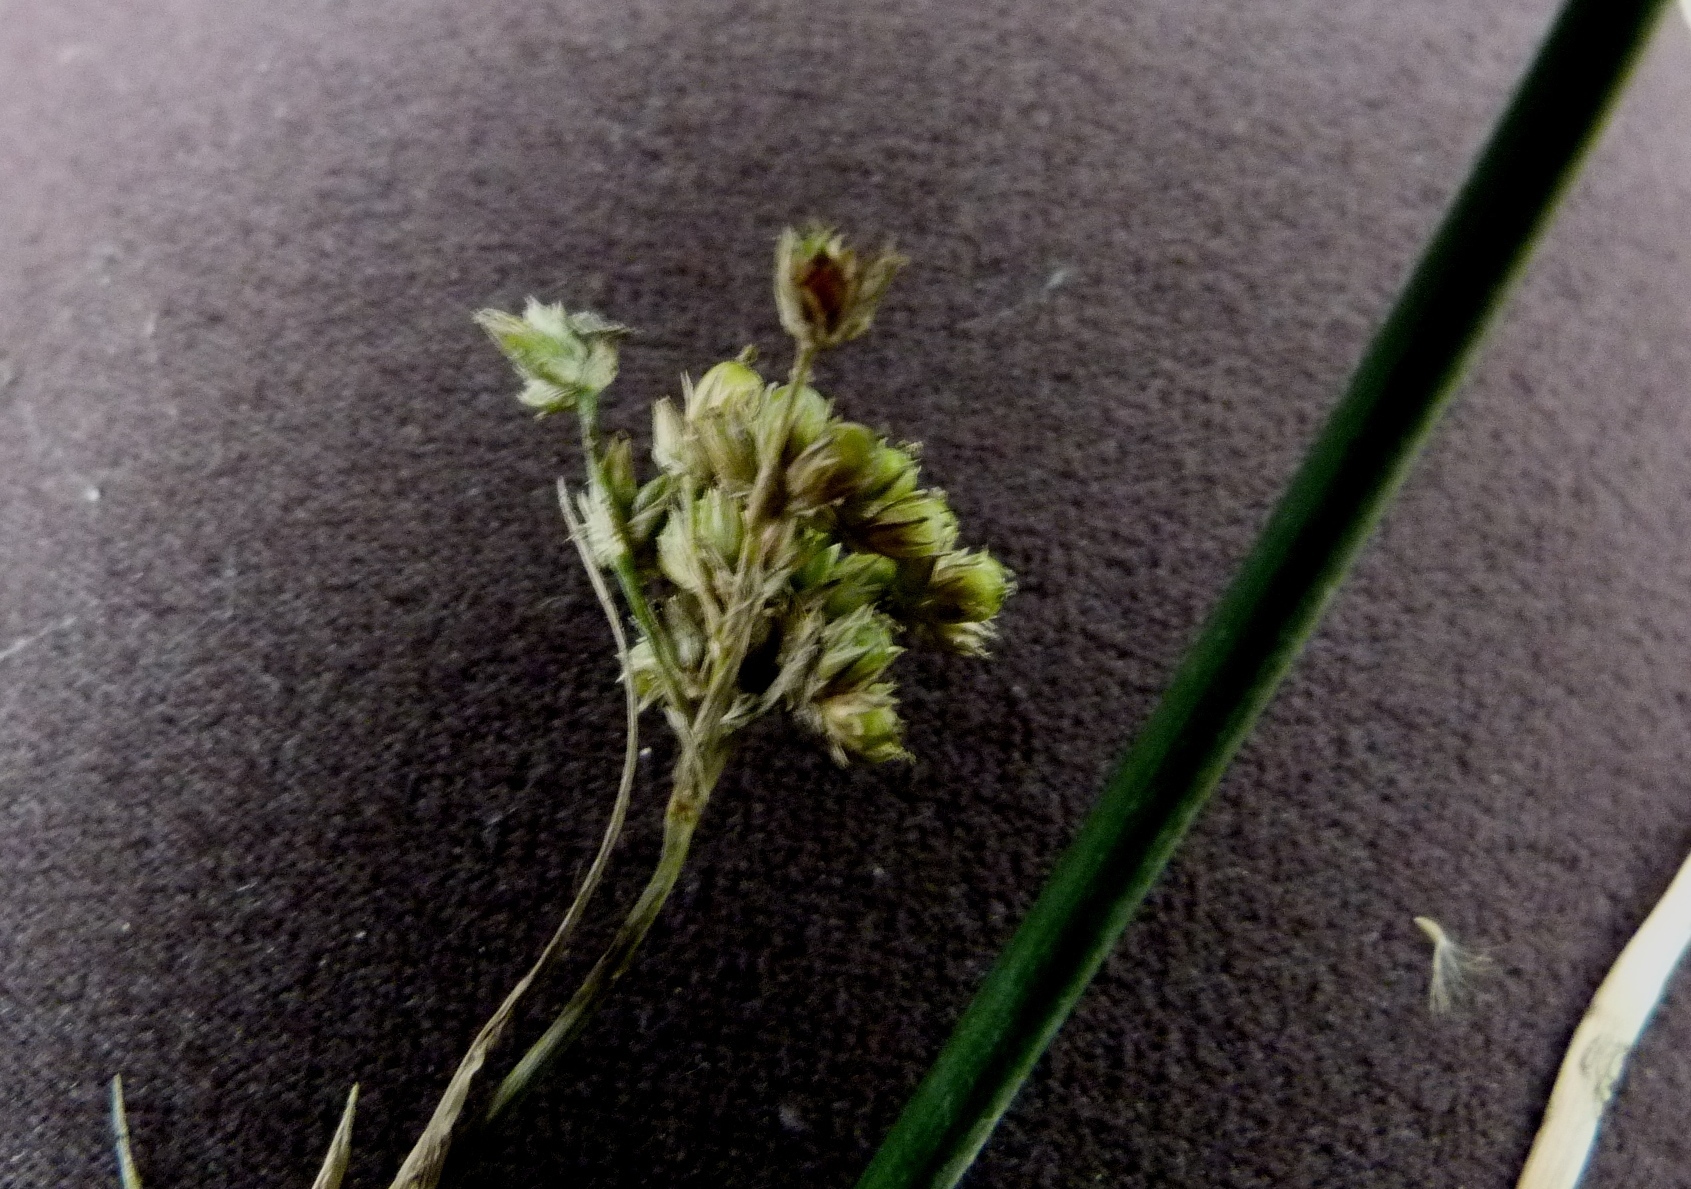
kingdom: Plantae
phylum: Tracheophyta
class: Liliopsida
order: Poales
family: Juncaceae
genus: Juncus
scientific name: Juncus acuminatus
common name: Knotty-leaved rush
